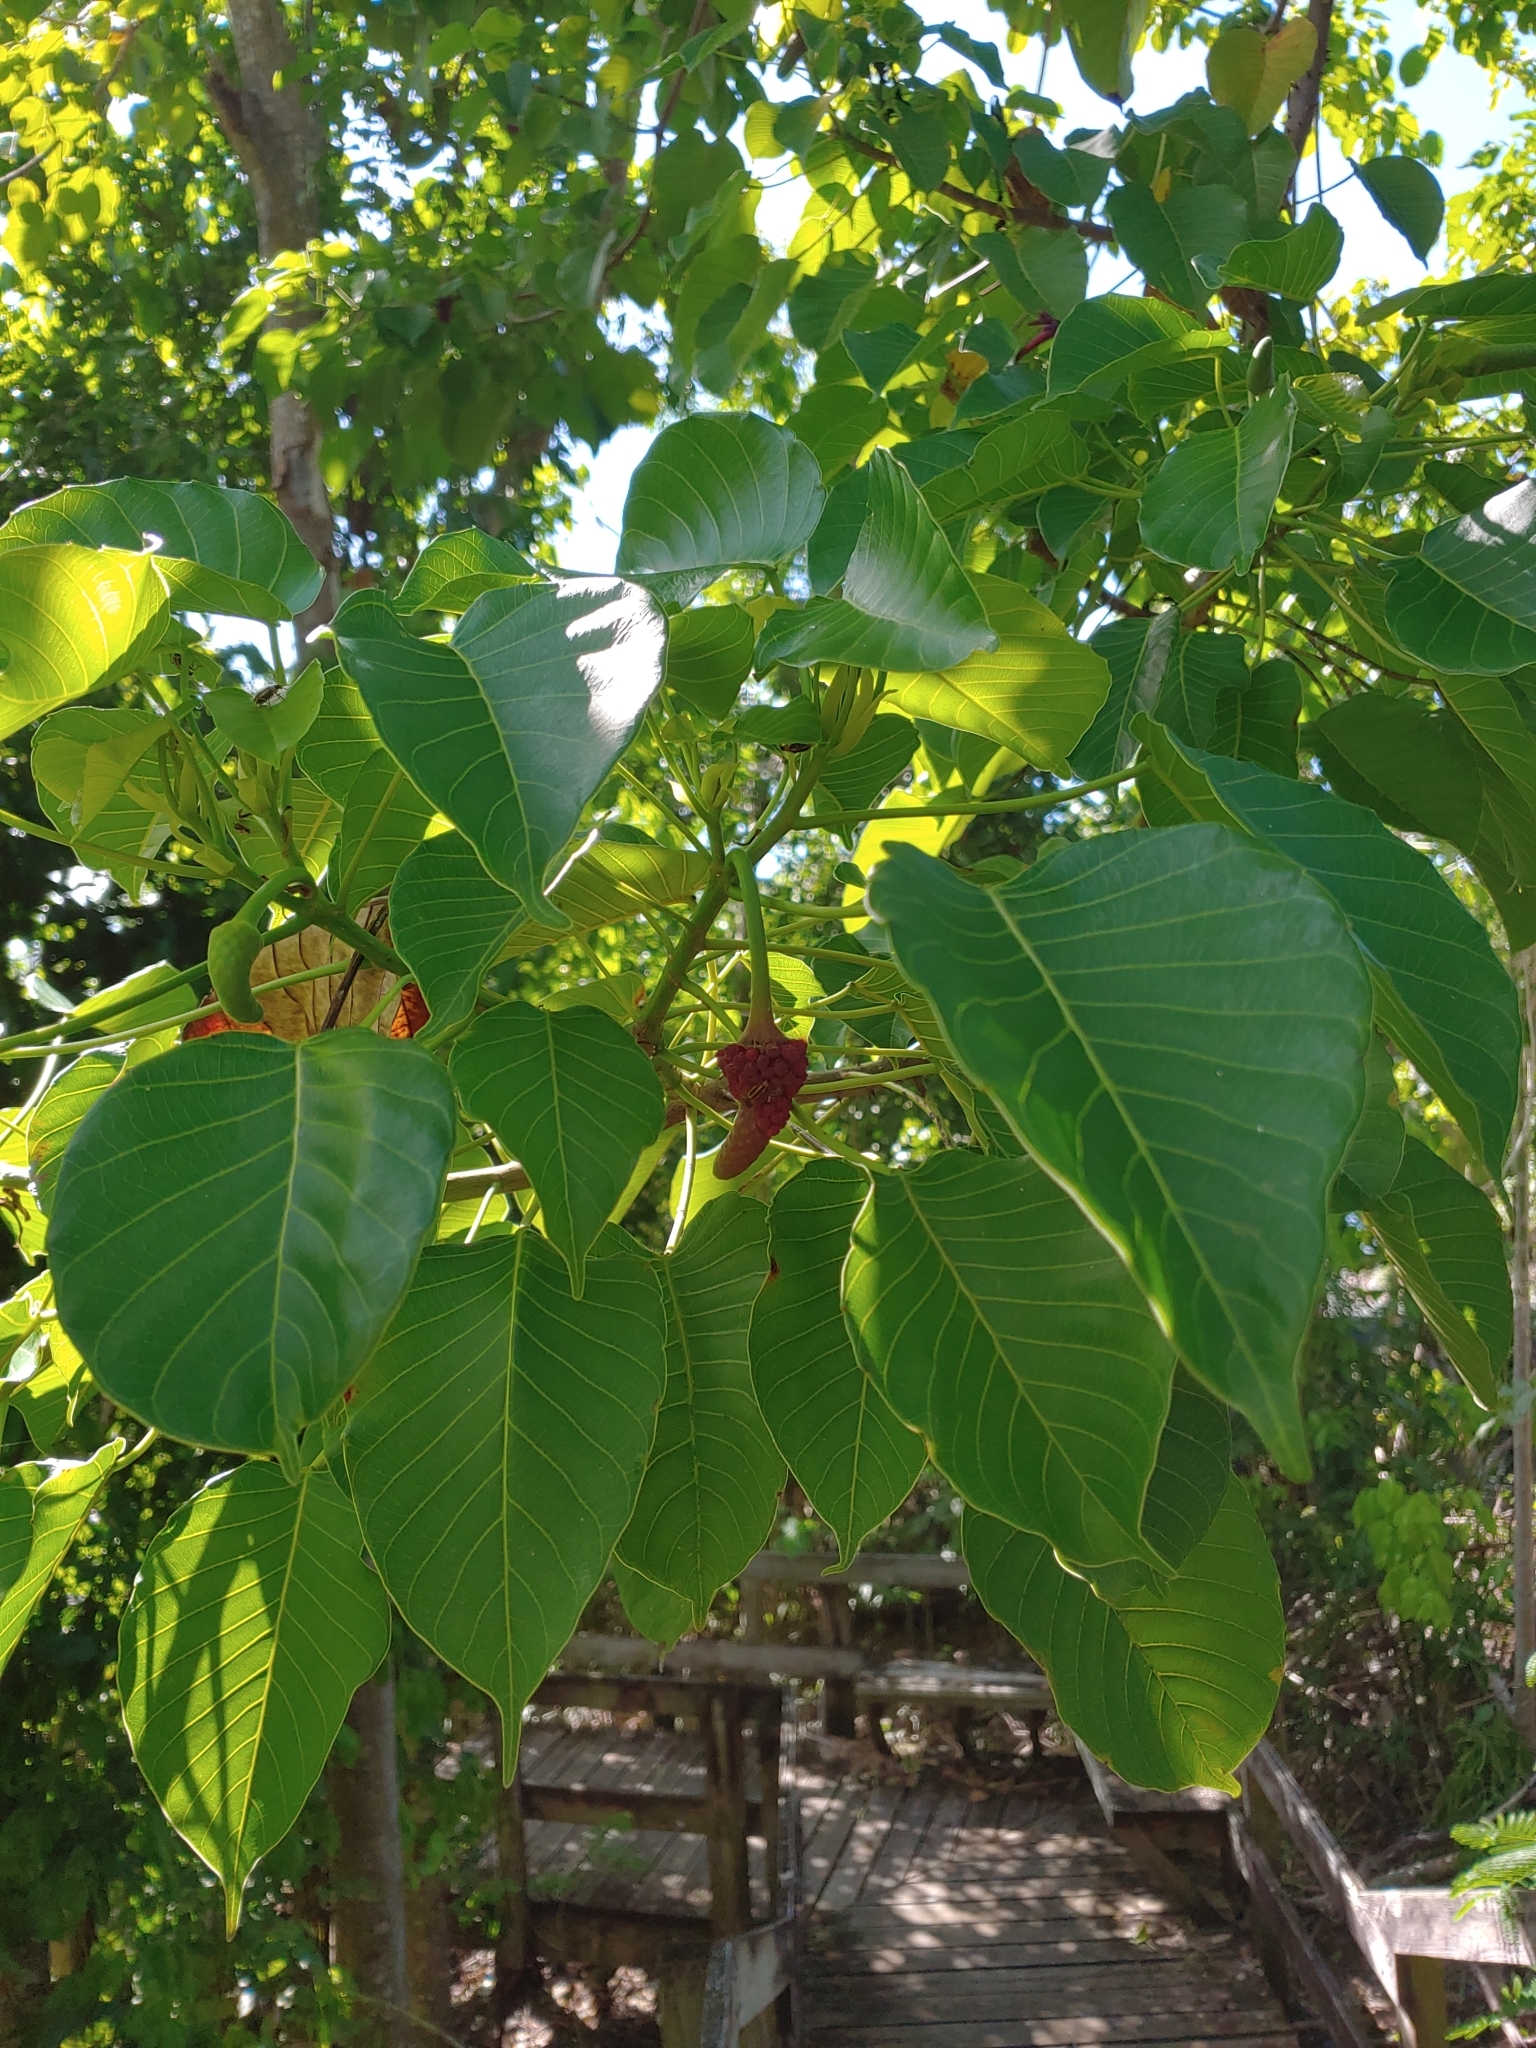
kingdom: Plantae
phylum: Tracheophyta
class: Magnoliopsida
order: Malpighiales
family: Euphorbiaceae
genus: Hura
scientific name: Hura crepitans
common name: Sandboxtree
